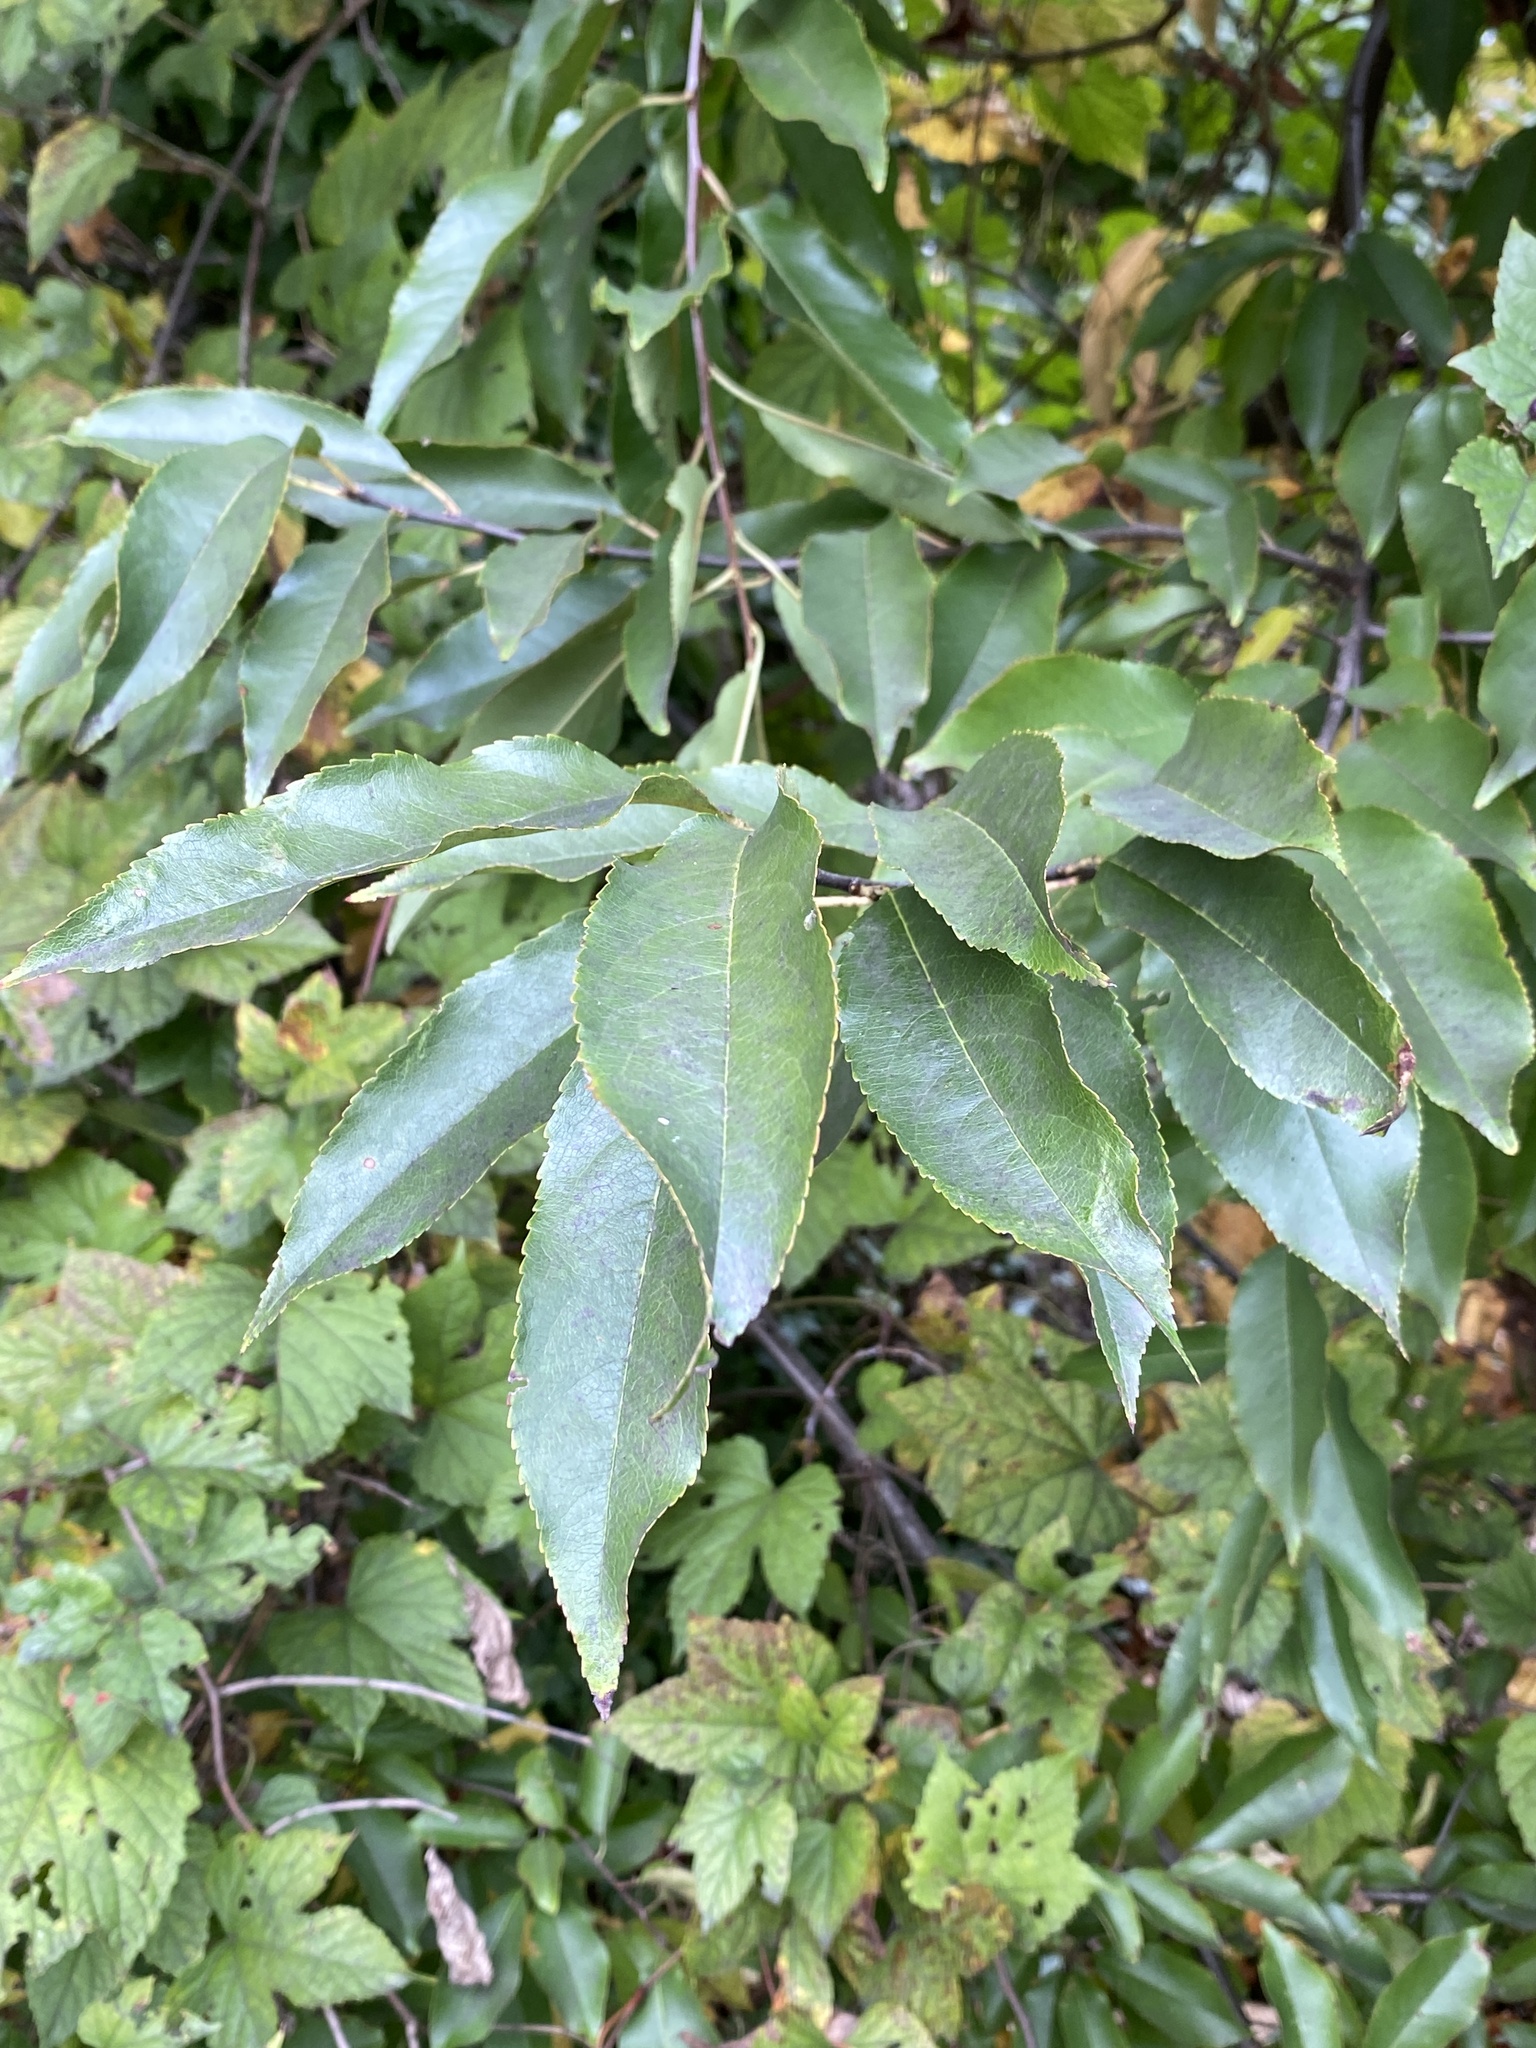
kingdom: Plantae
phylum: Tracheophyta
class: Magnoliopsida
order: Rosales
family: Rosaceae
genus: Prunus
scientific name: Prunus serotina
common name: Black cherry
